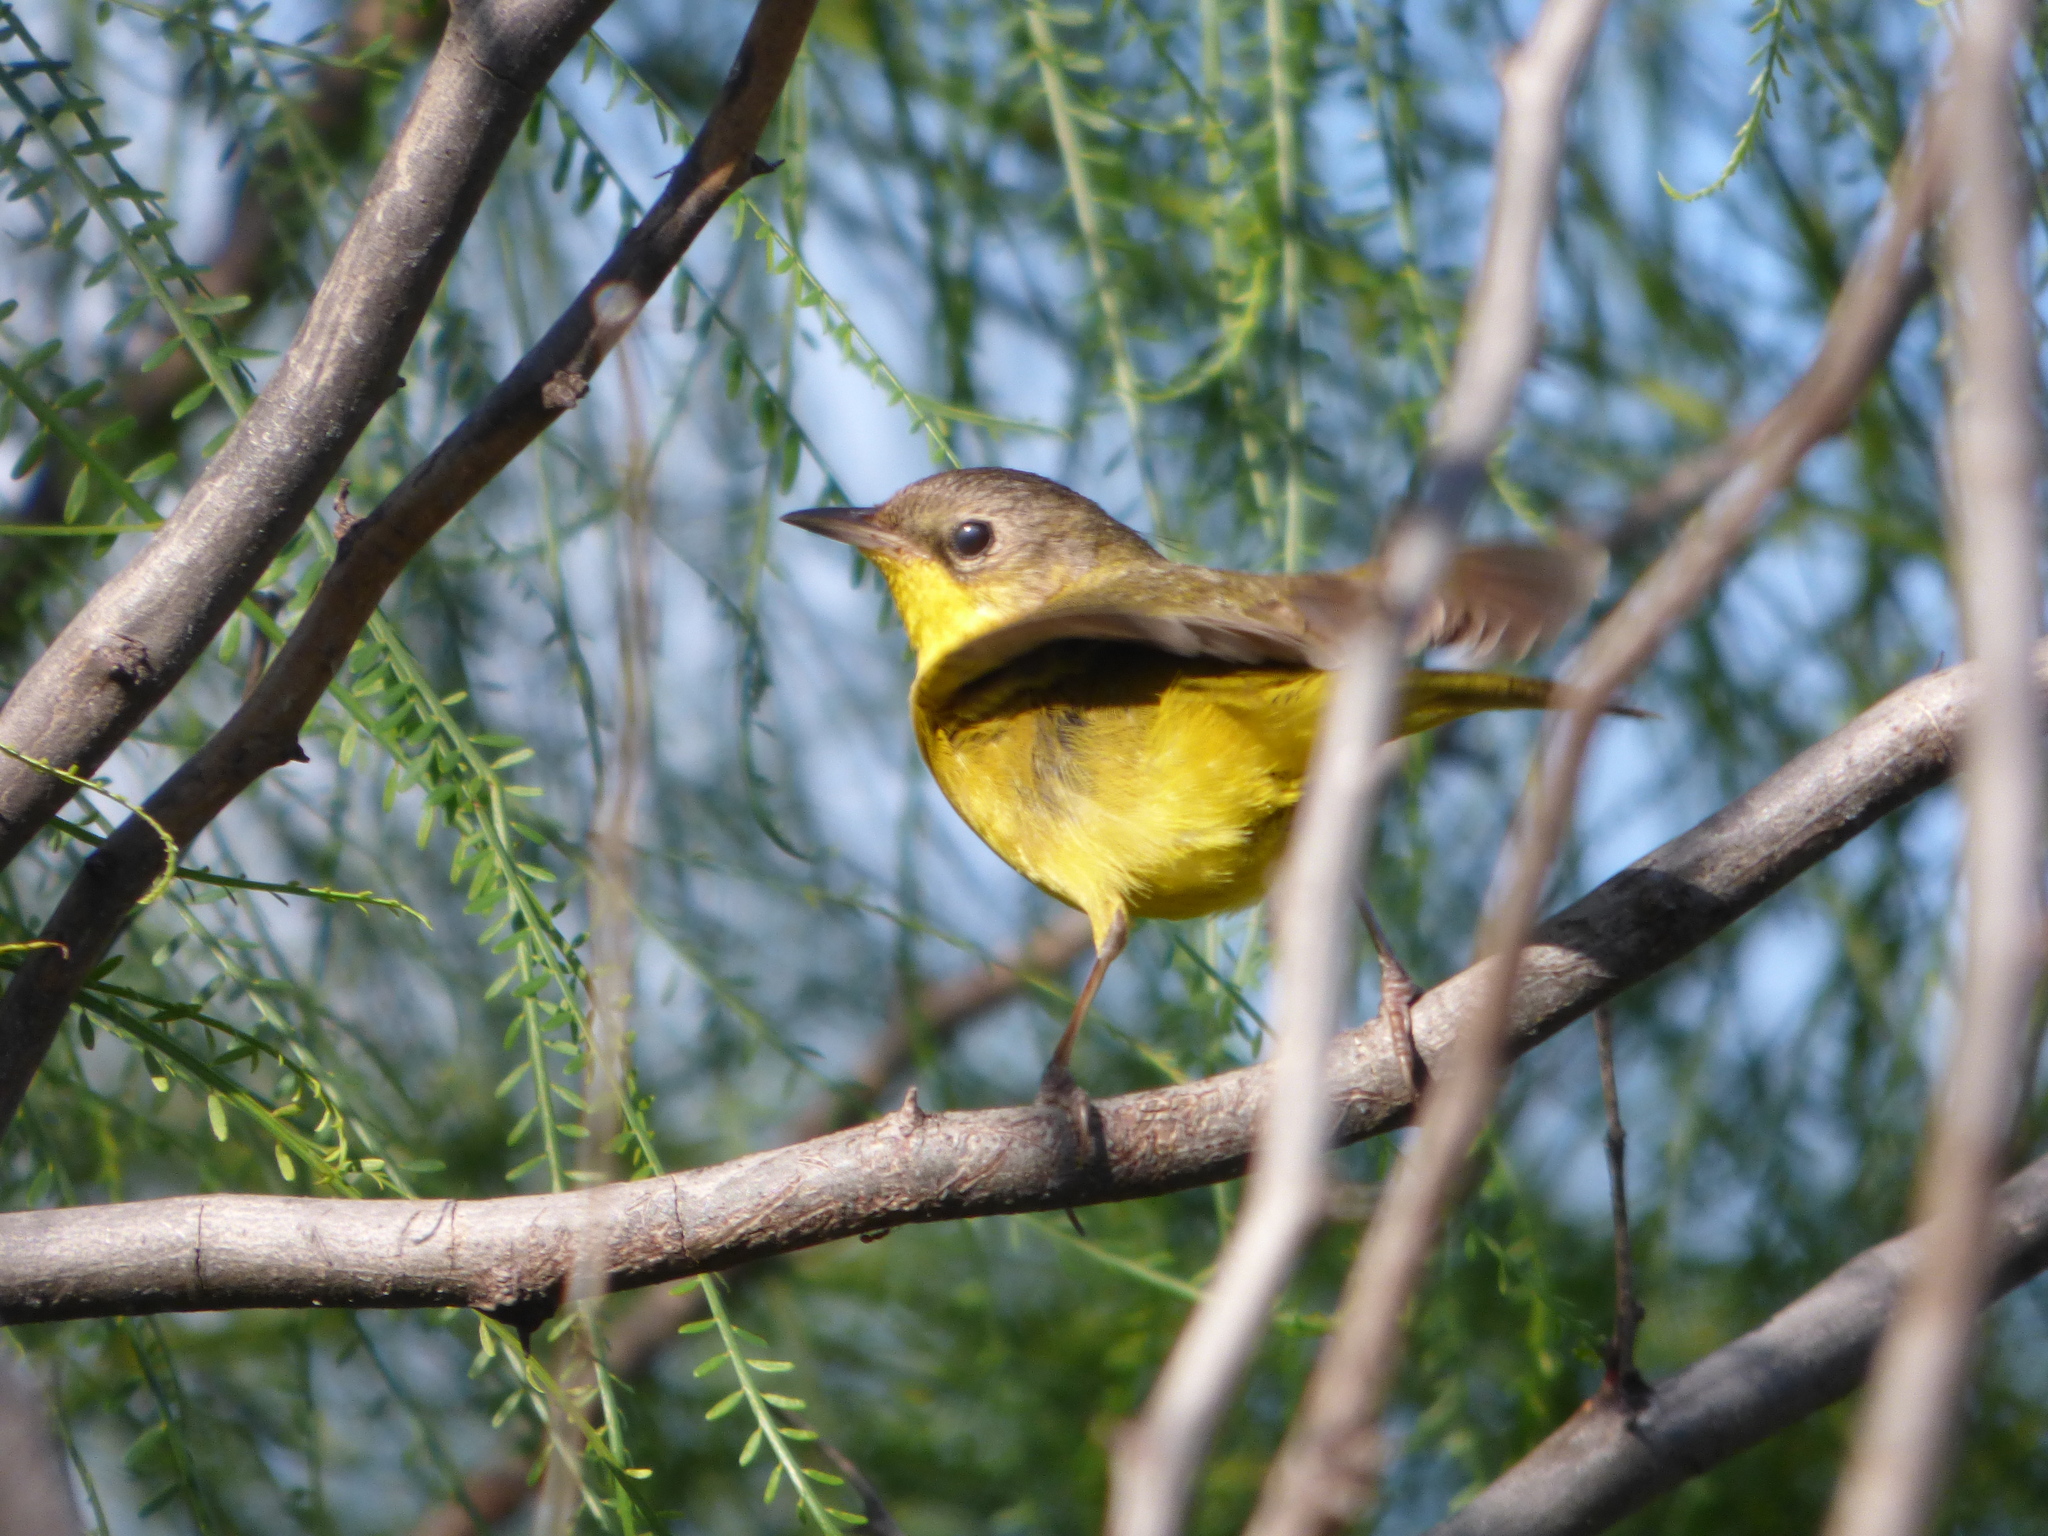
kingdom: Animalia
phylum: Chordata
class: Aves
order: Passeriformes
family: Parulidae
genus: Geothlypis
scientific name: Geothlypis velata
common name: Southern yellowthroat
